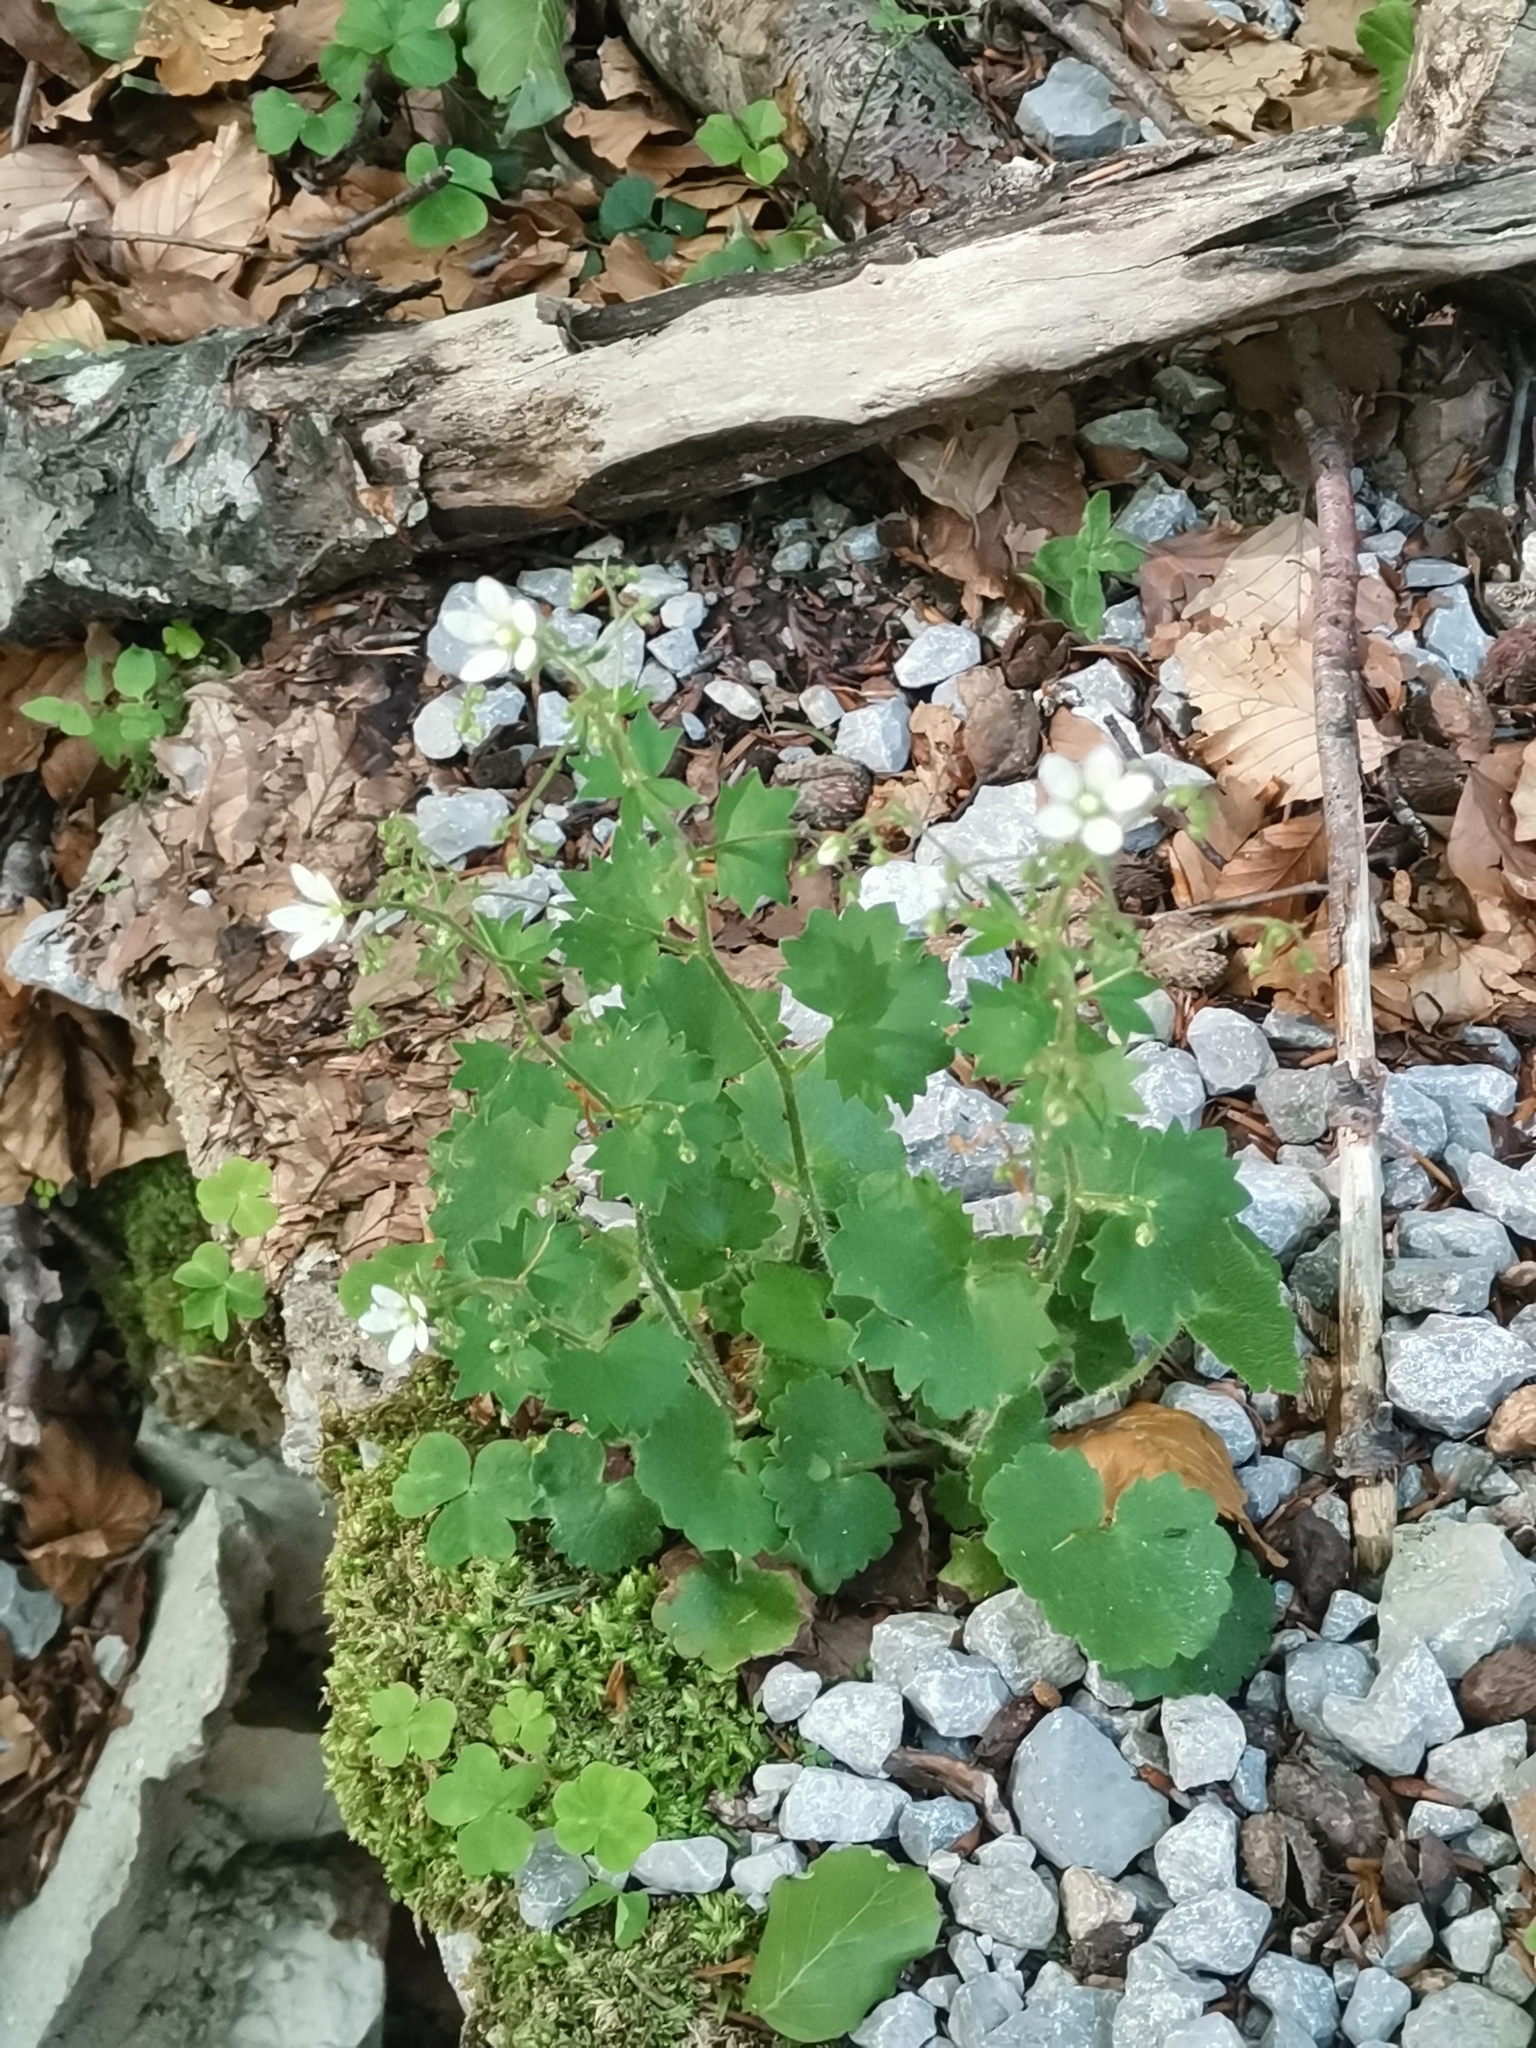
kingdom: Plantae
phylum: Tracheophyta
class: Magnoliopsida
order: Saxifragales
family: Saxifragaceae
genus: Saxifraga
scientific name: Saxifraga rotundifolia
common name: Round-leaved saxifrage
